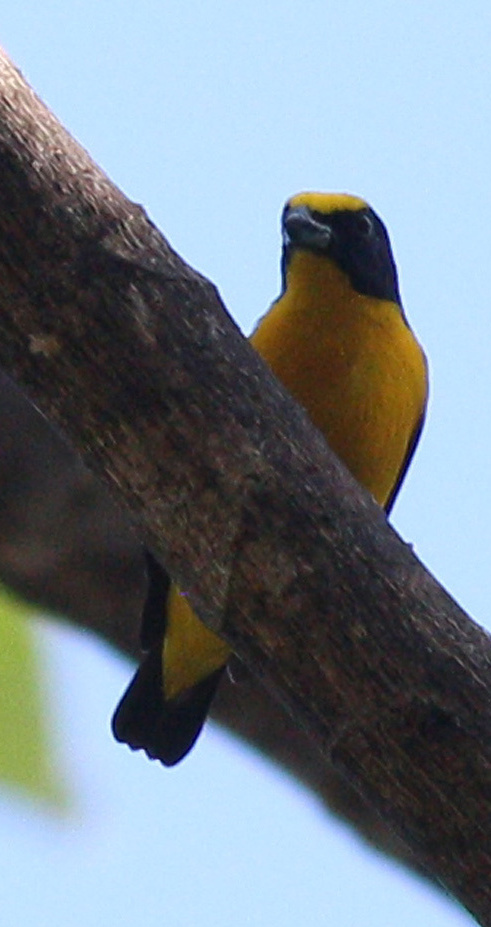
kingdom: Animalia
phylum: Chordata
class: Aves
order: Passeriformes
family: Fringillidae
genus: Euphonia
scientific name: Euphonia laniirostris
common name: Thick-billed euphonia
